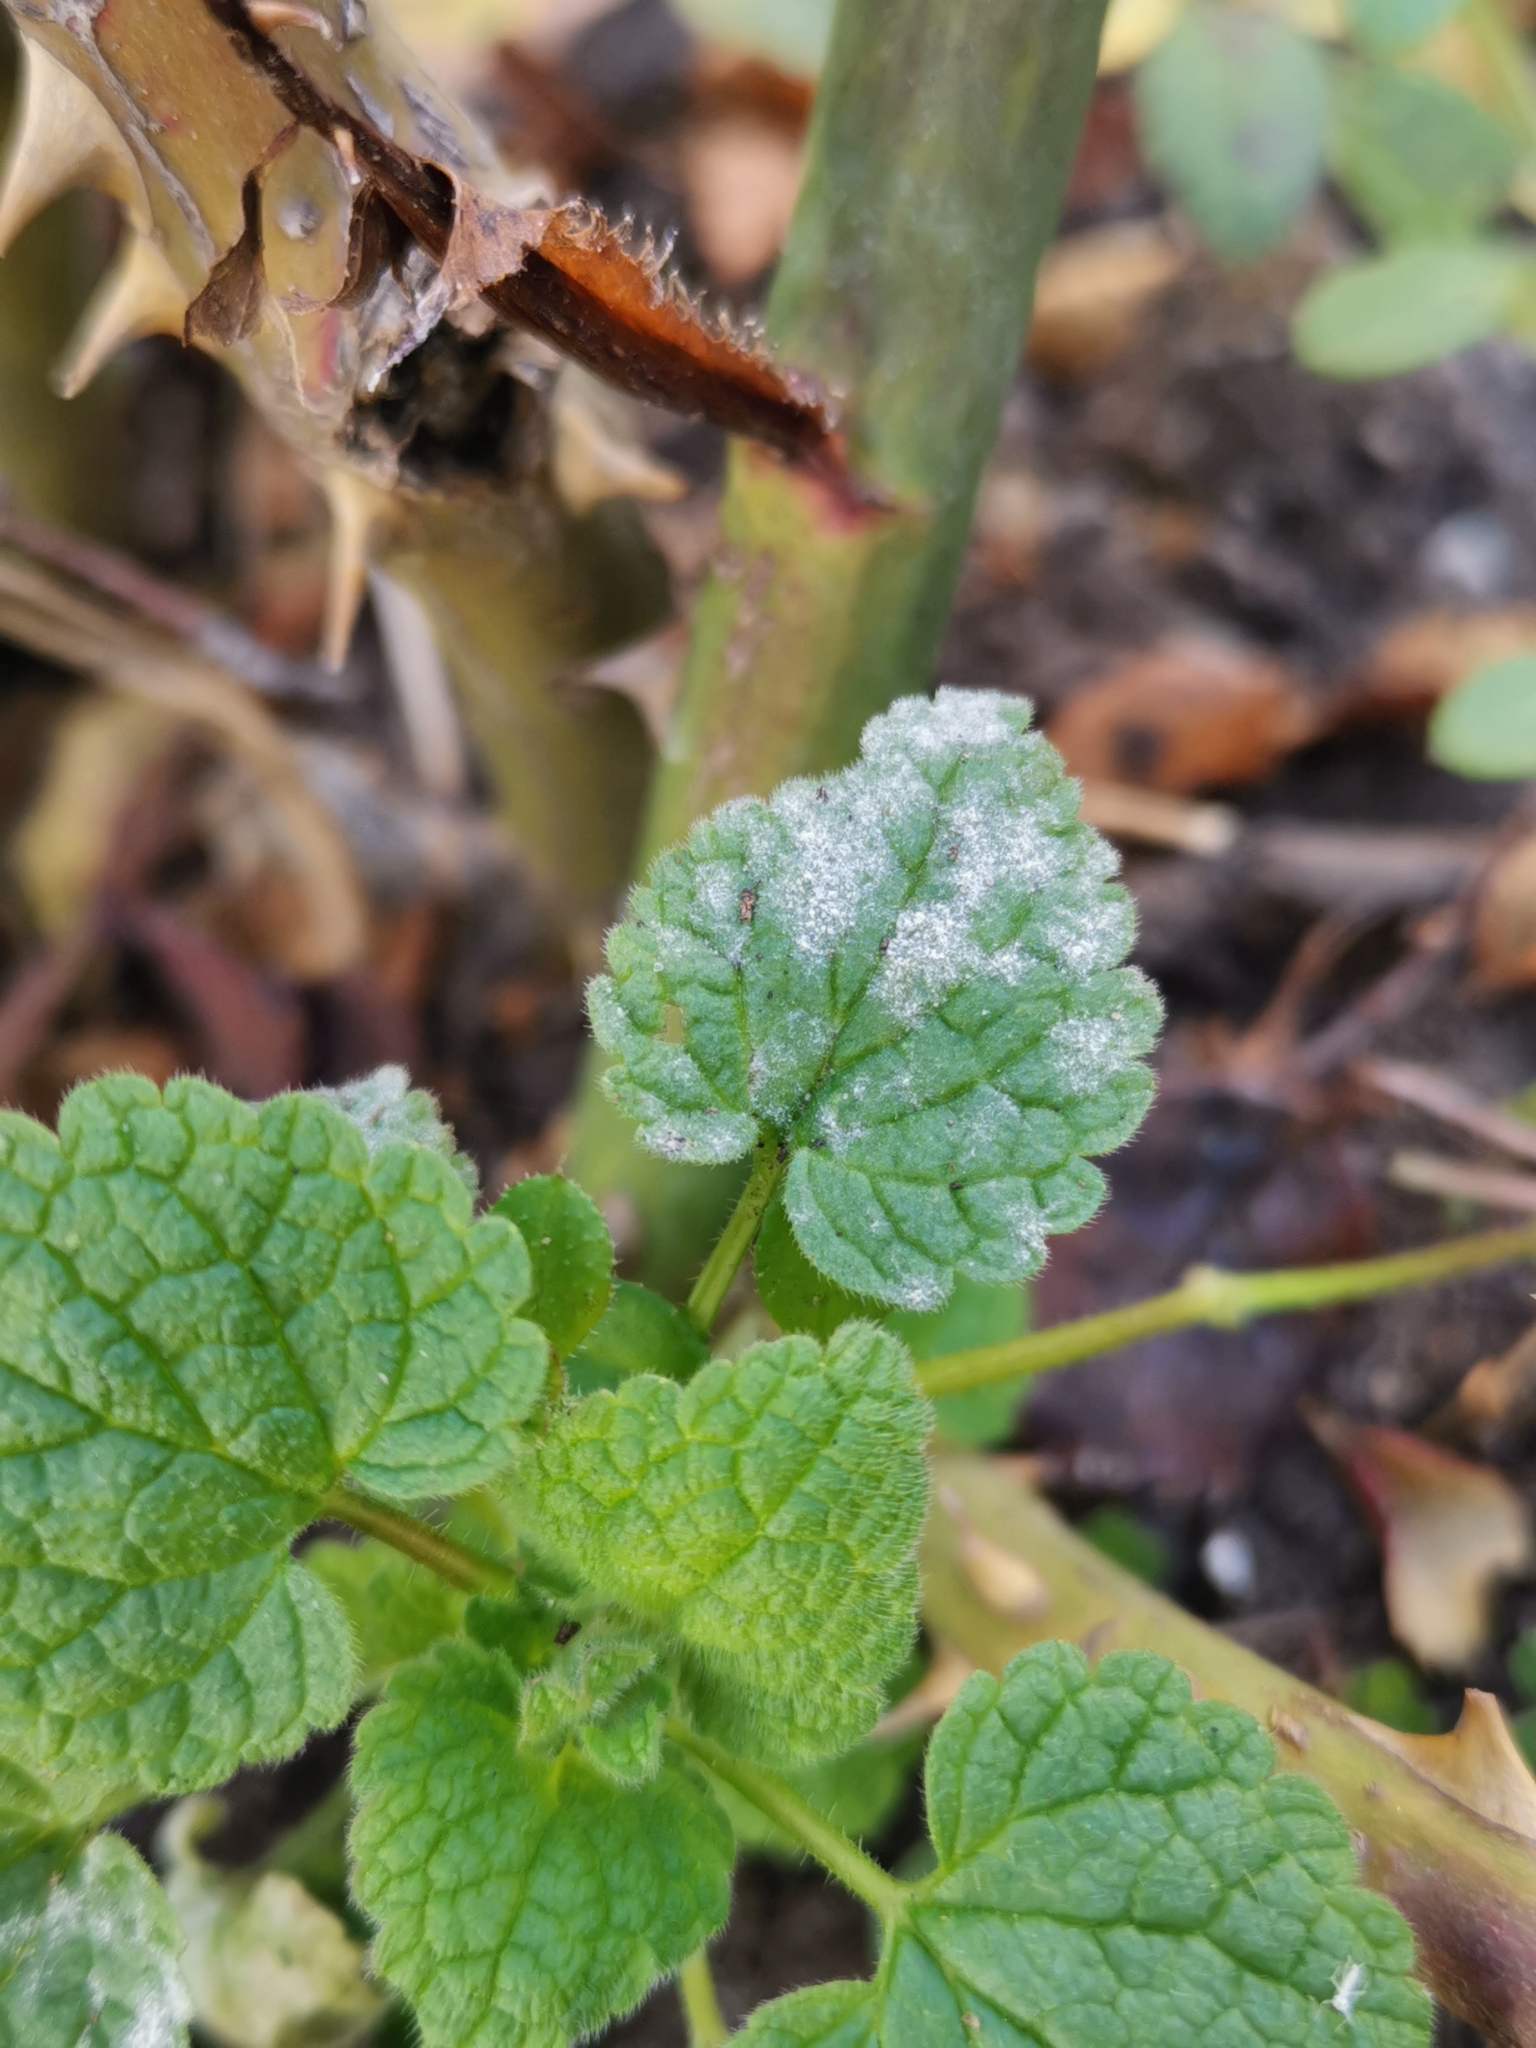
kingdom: Fungi
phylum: Ascomycota
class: Leotiomycetes
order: Helotiales
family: Erysiphaceae
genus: Neoerysiphe
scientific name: Neoerysiphe galeopsidis
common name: Mint mildew
